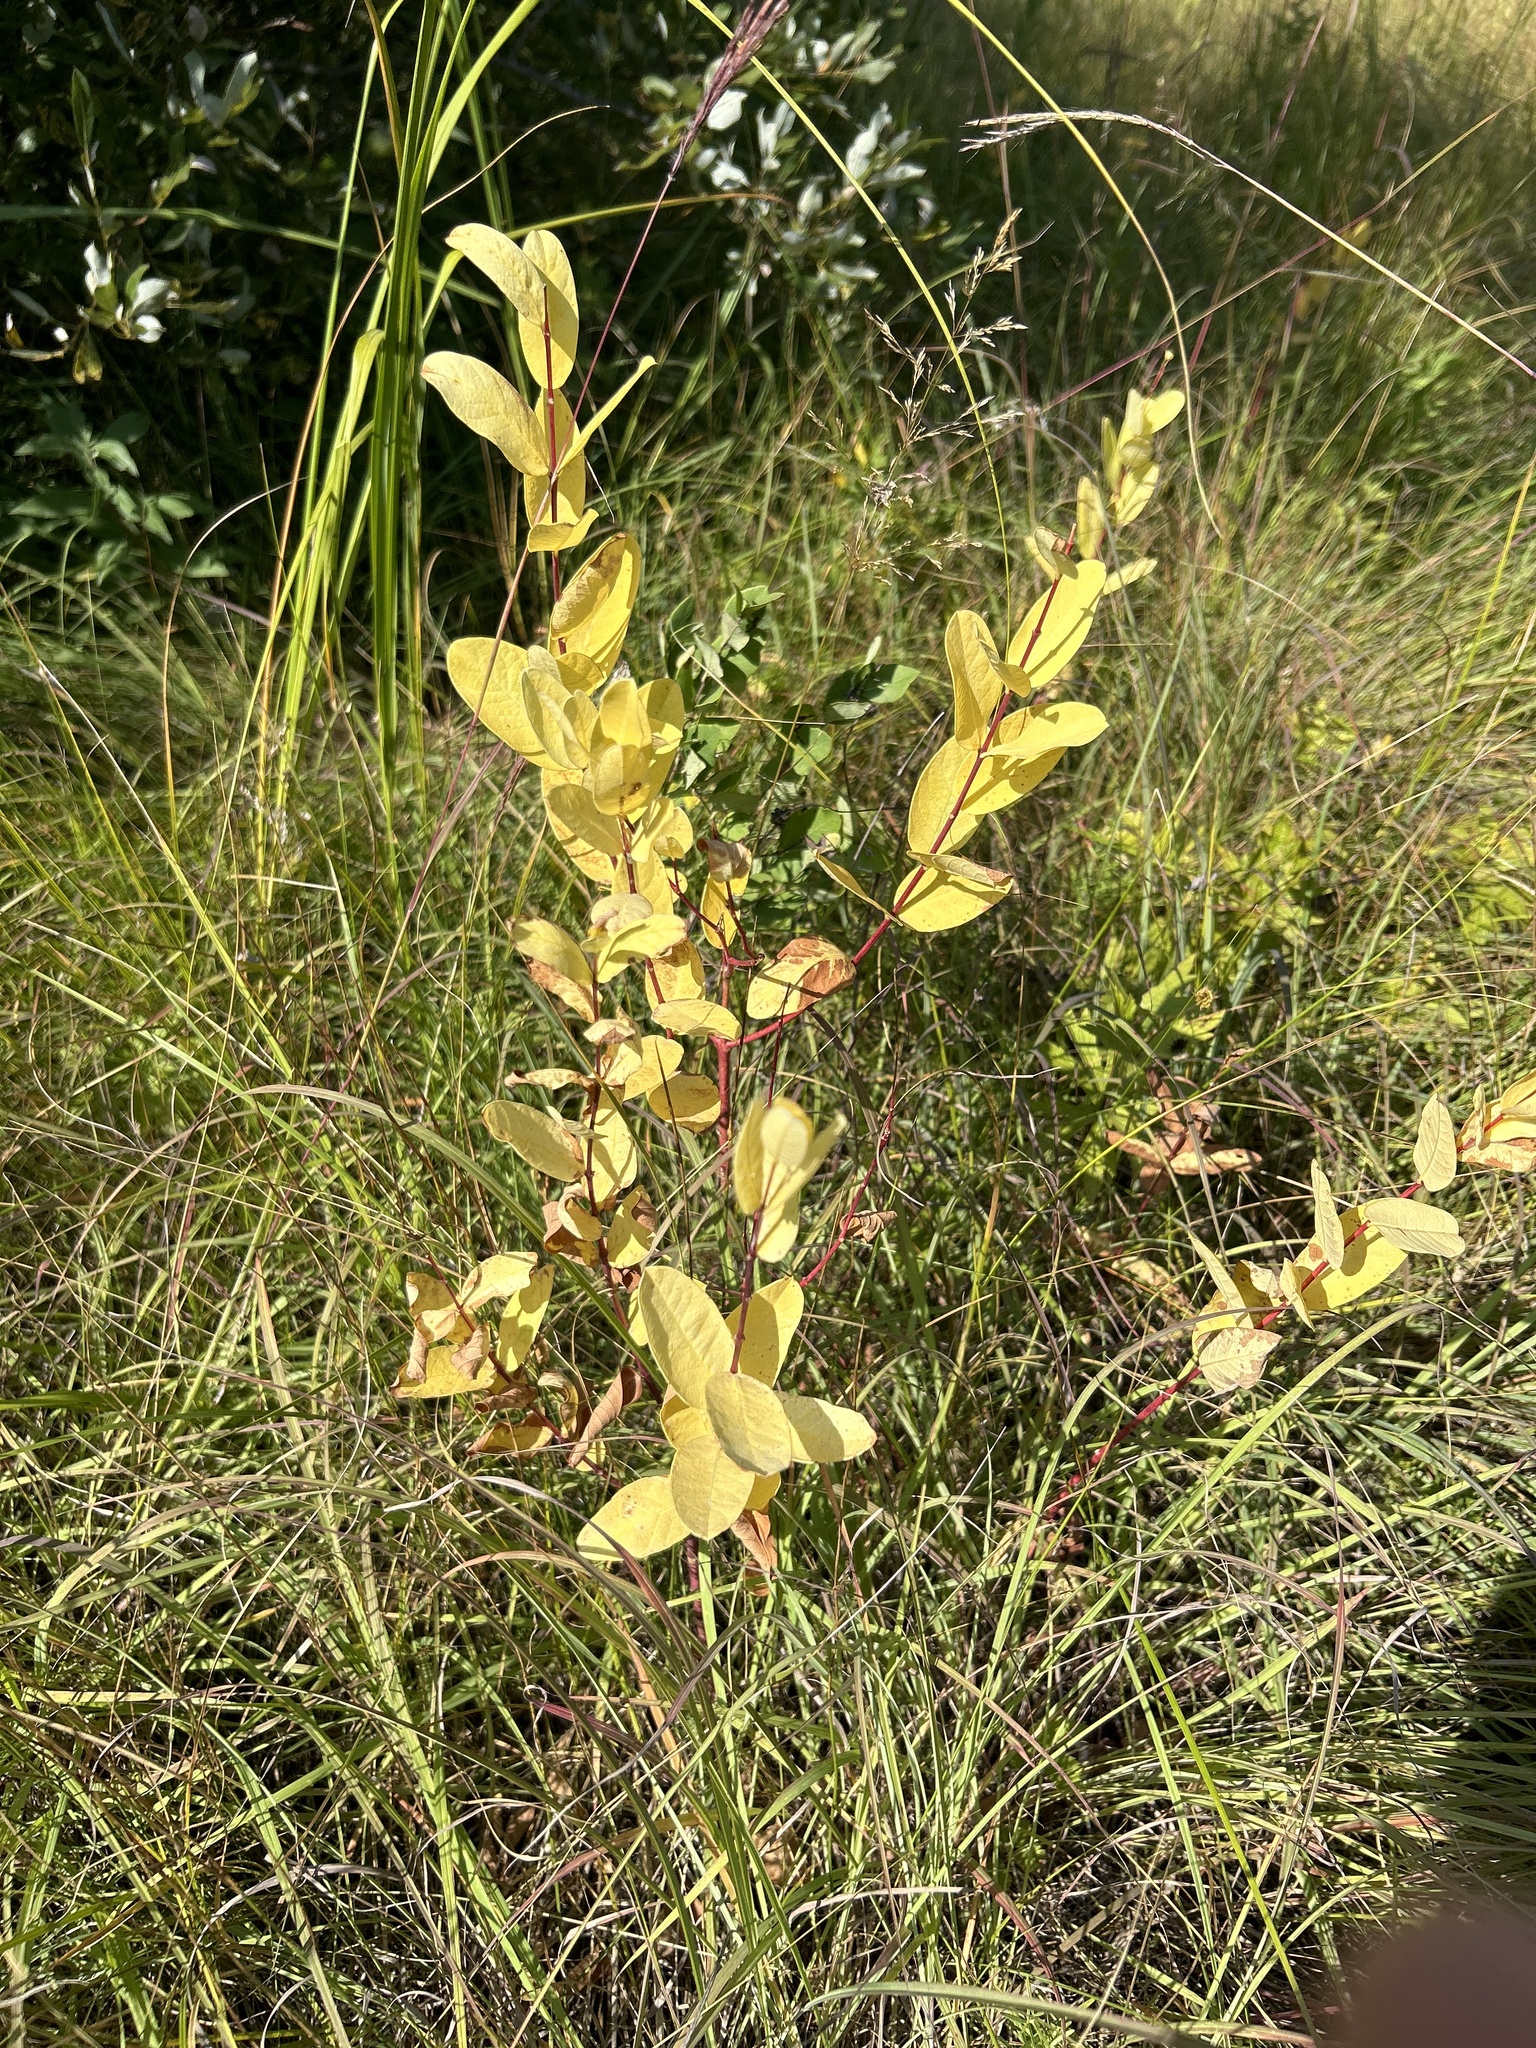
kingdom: Plantae
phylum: Tracheophyta
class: Magnoliopsida
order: Gentianales
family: Apocynaceae
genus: Apocynum
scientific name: Apocynum cannabinum
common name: Hemp dogbane
